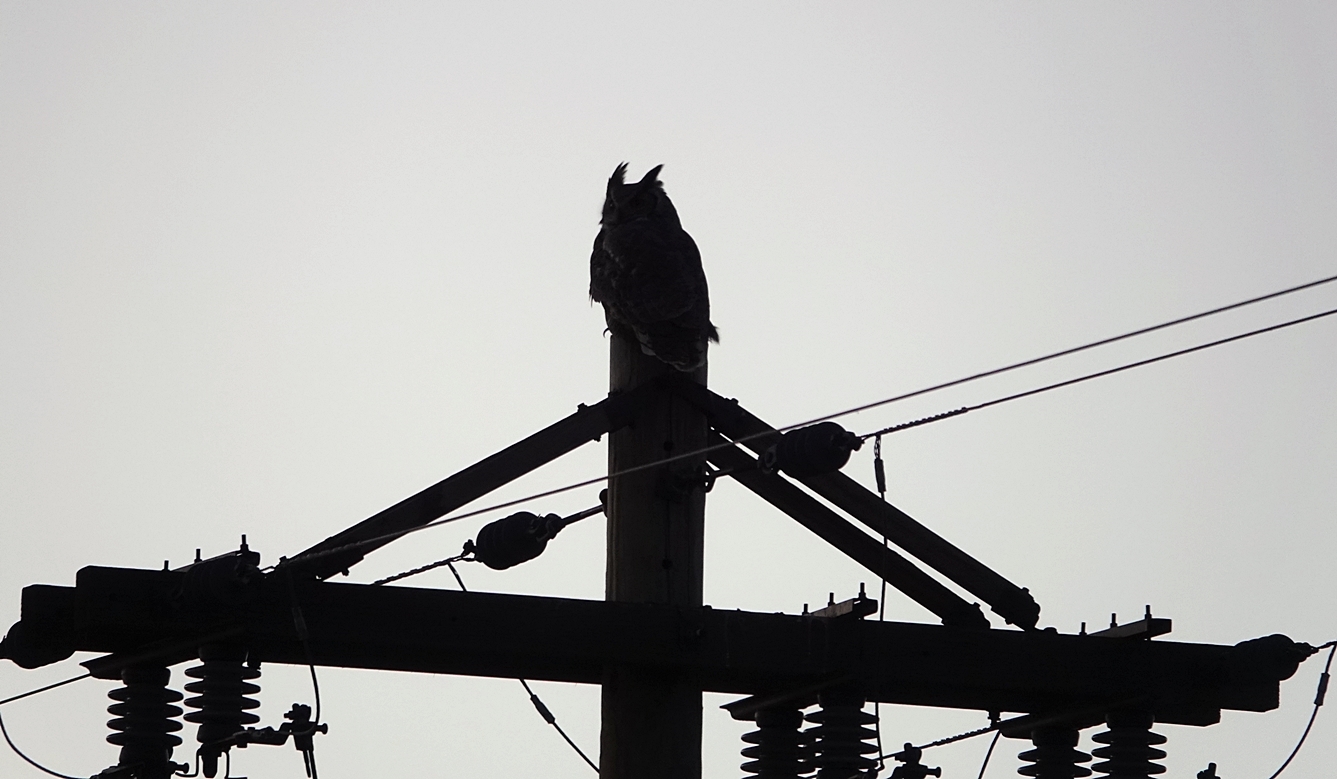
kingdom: Animalia
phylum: Chordata
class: Aves
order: Strigiformes
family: Strigidae
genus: Bubo
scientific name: Bubo virginianus
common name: Great horned owl
